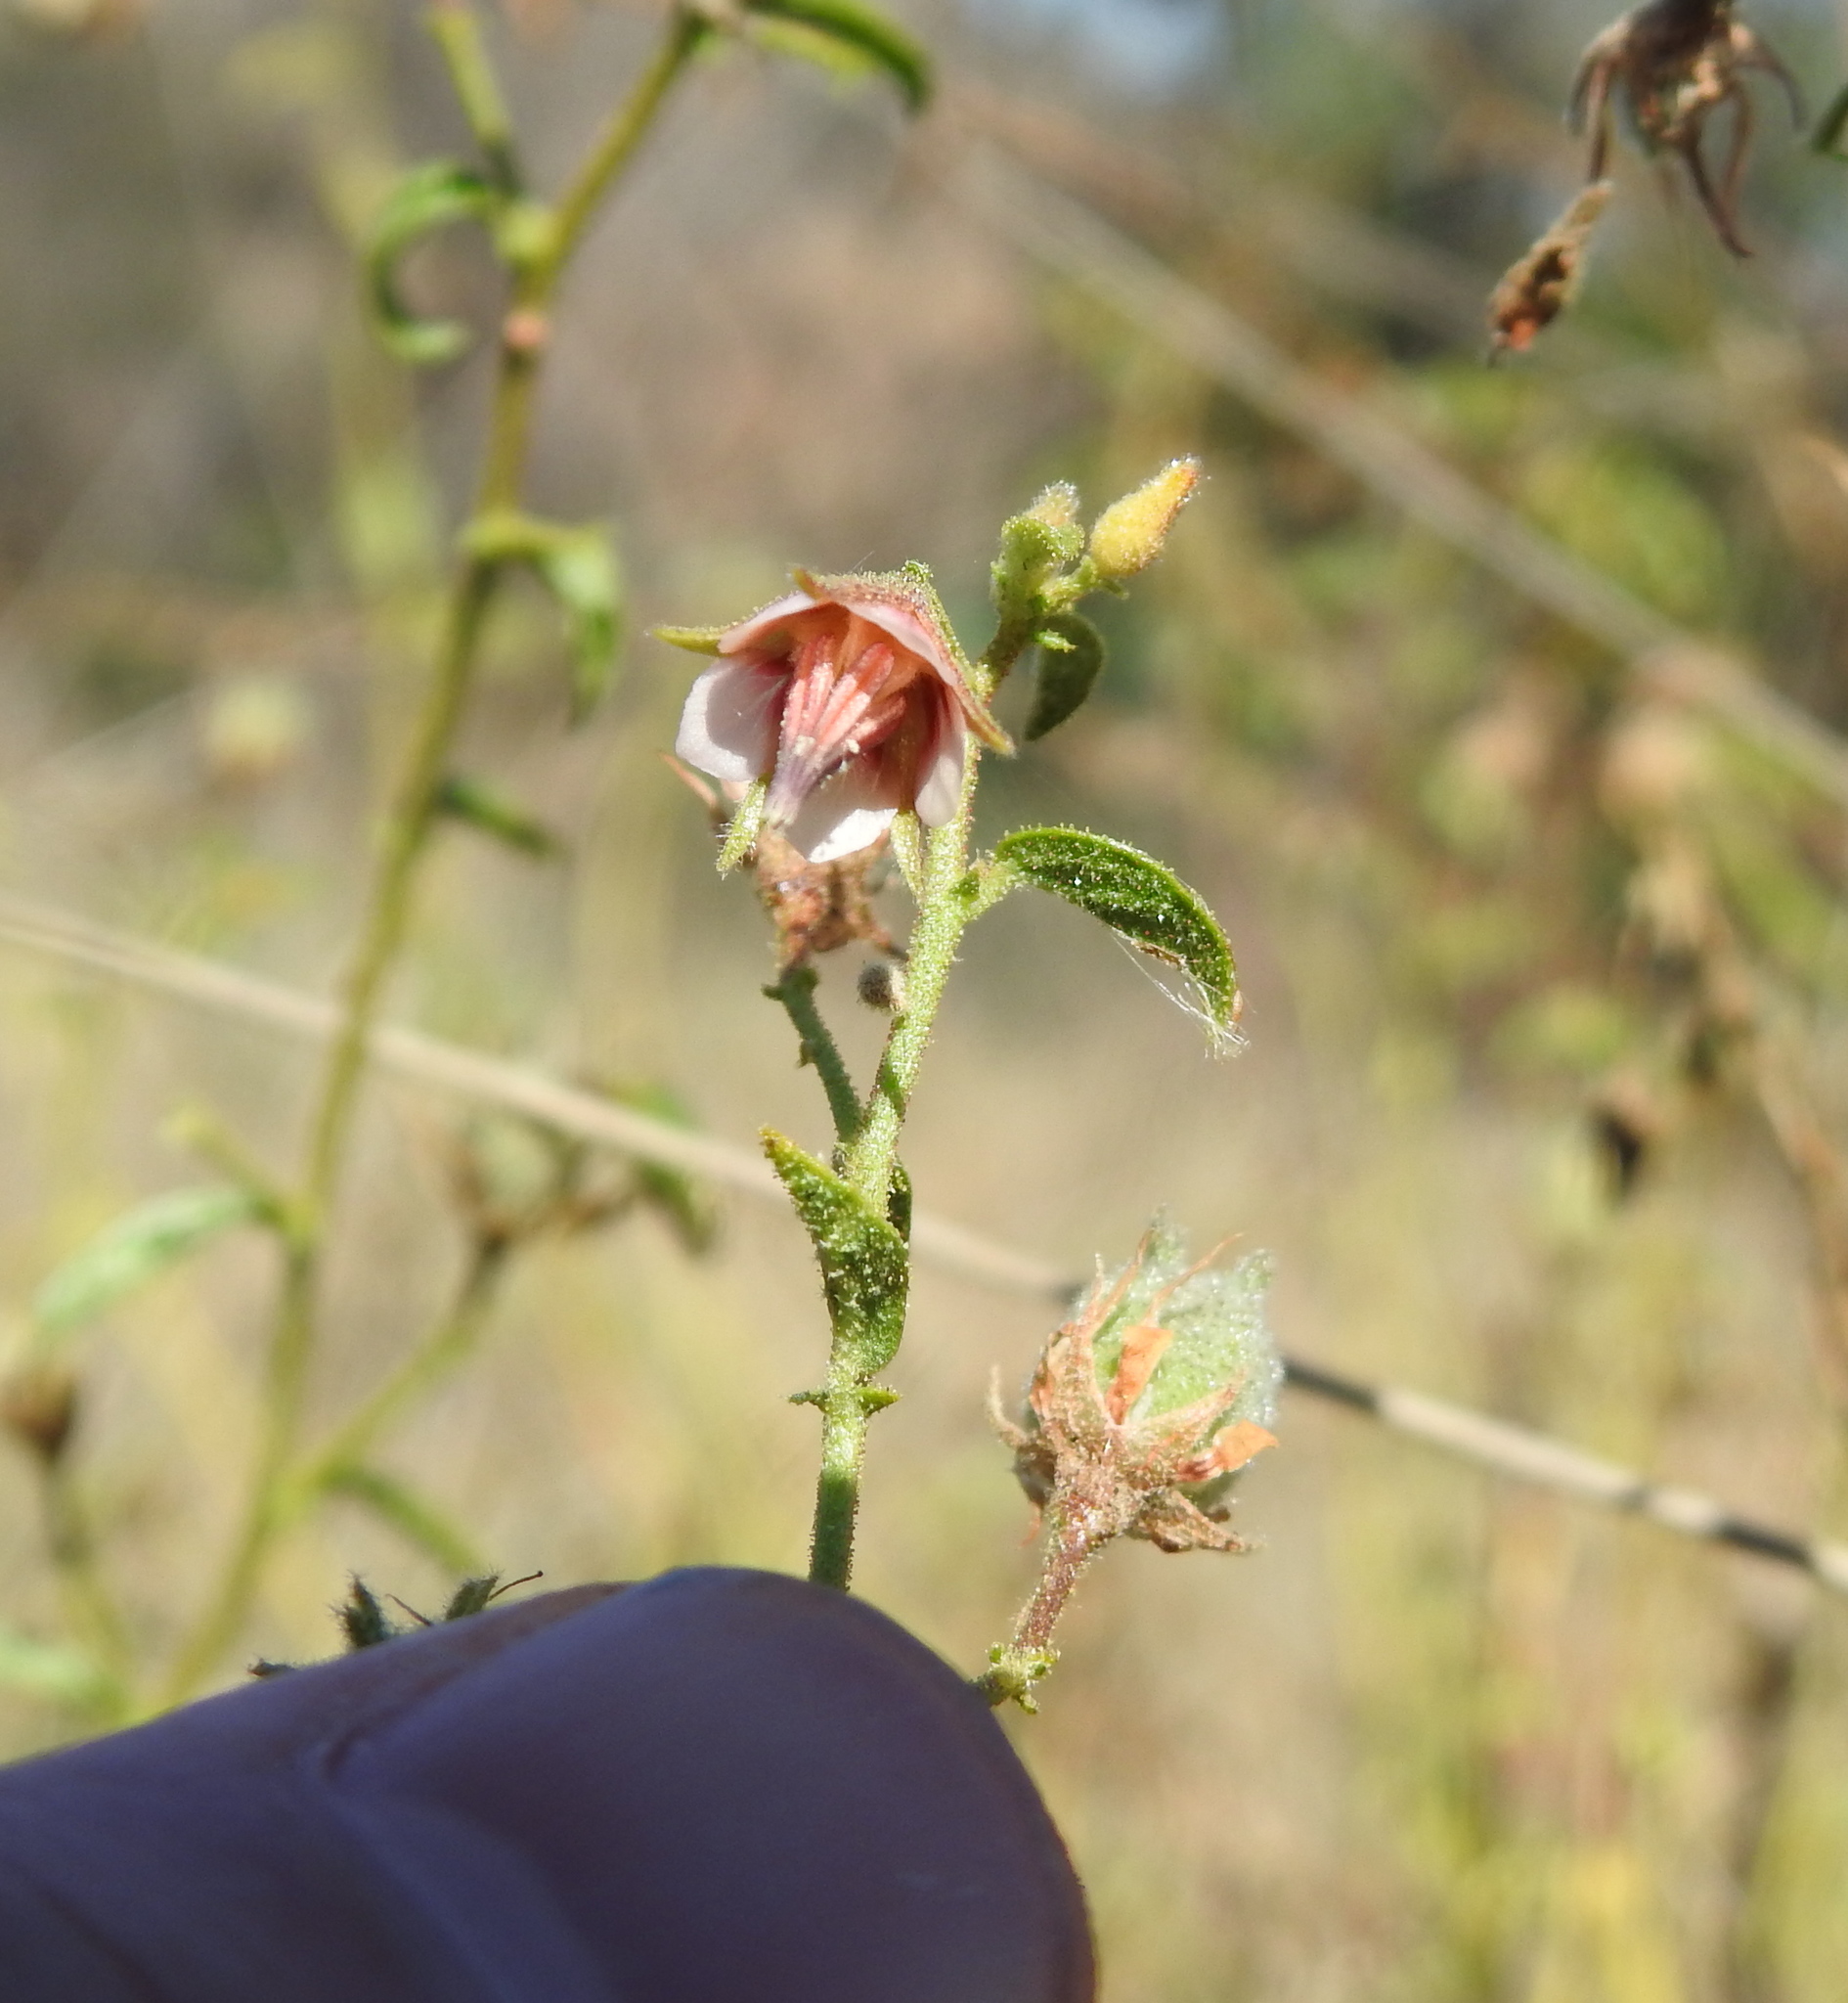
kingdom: Plantae
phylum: Tracheophyta
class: Magnoliopsida
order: Malvales
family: Malvaceae
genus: Hermannia
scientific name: Hermannia boraginiflora
